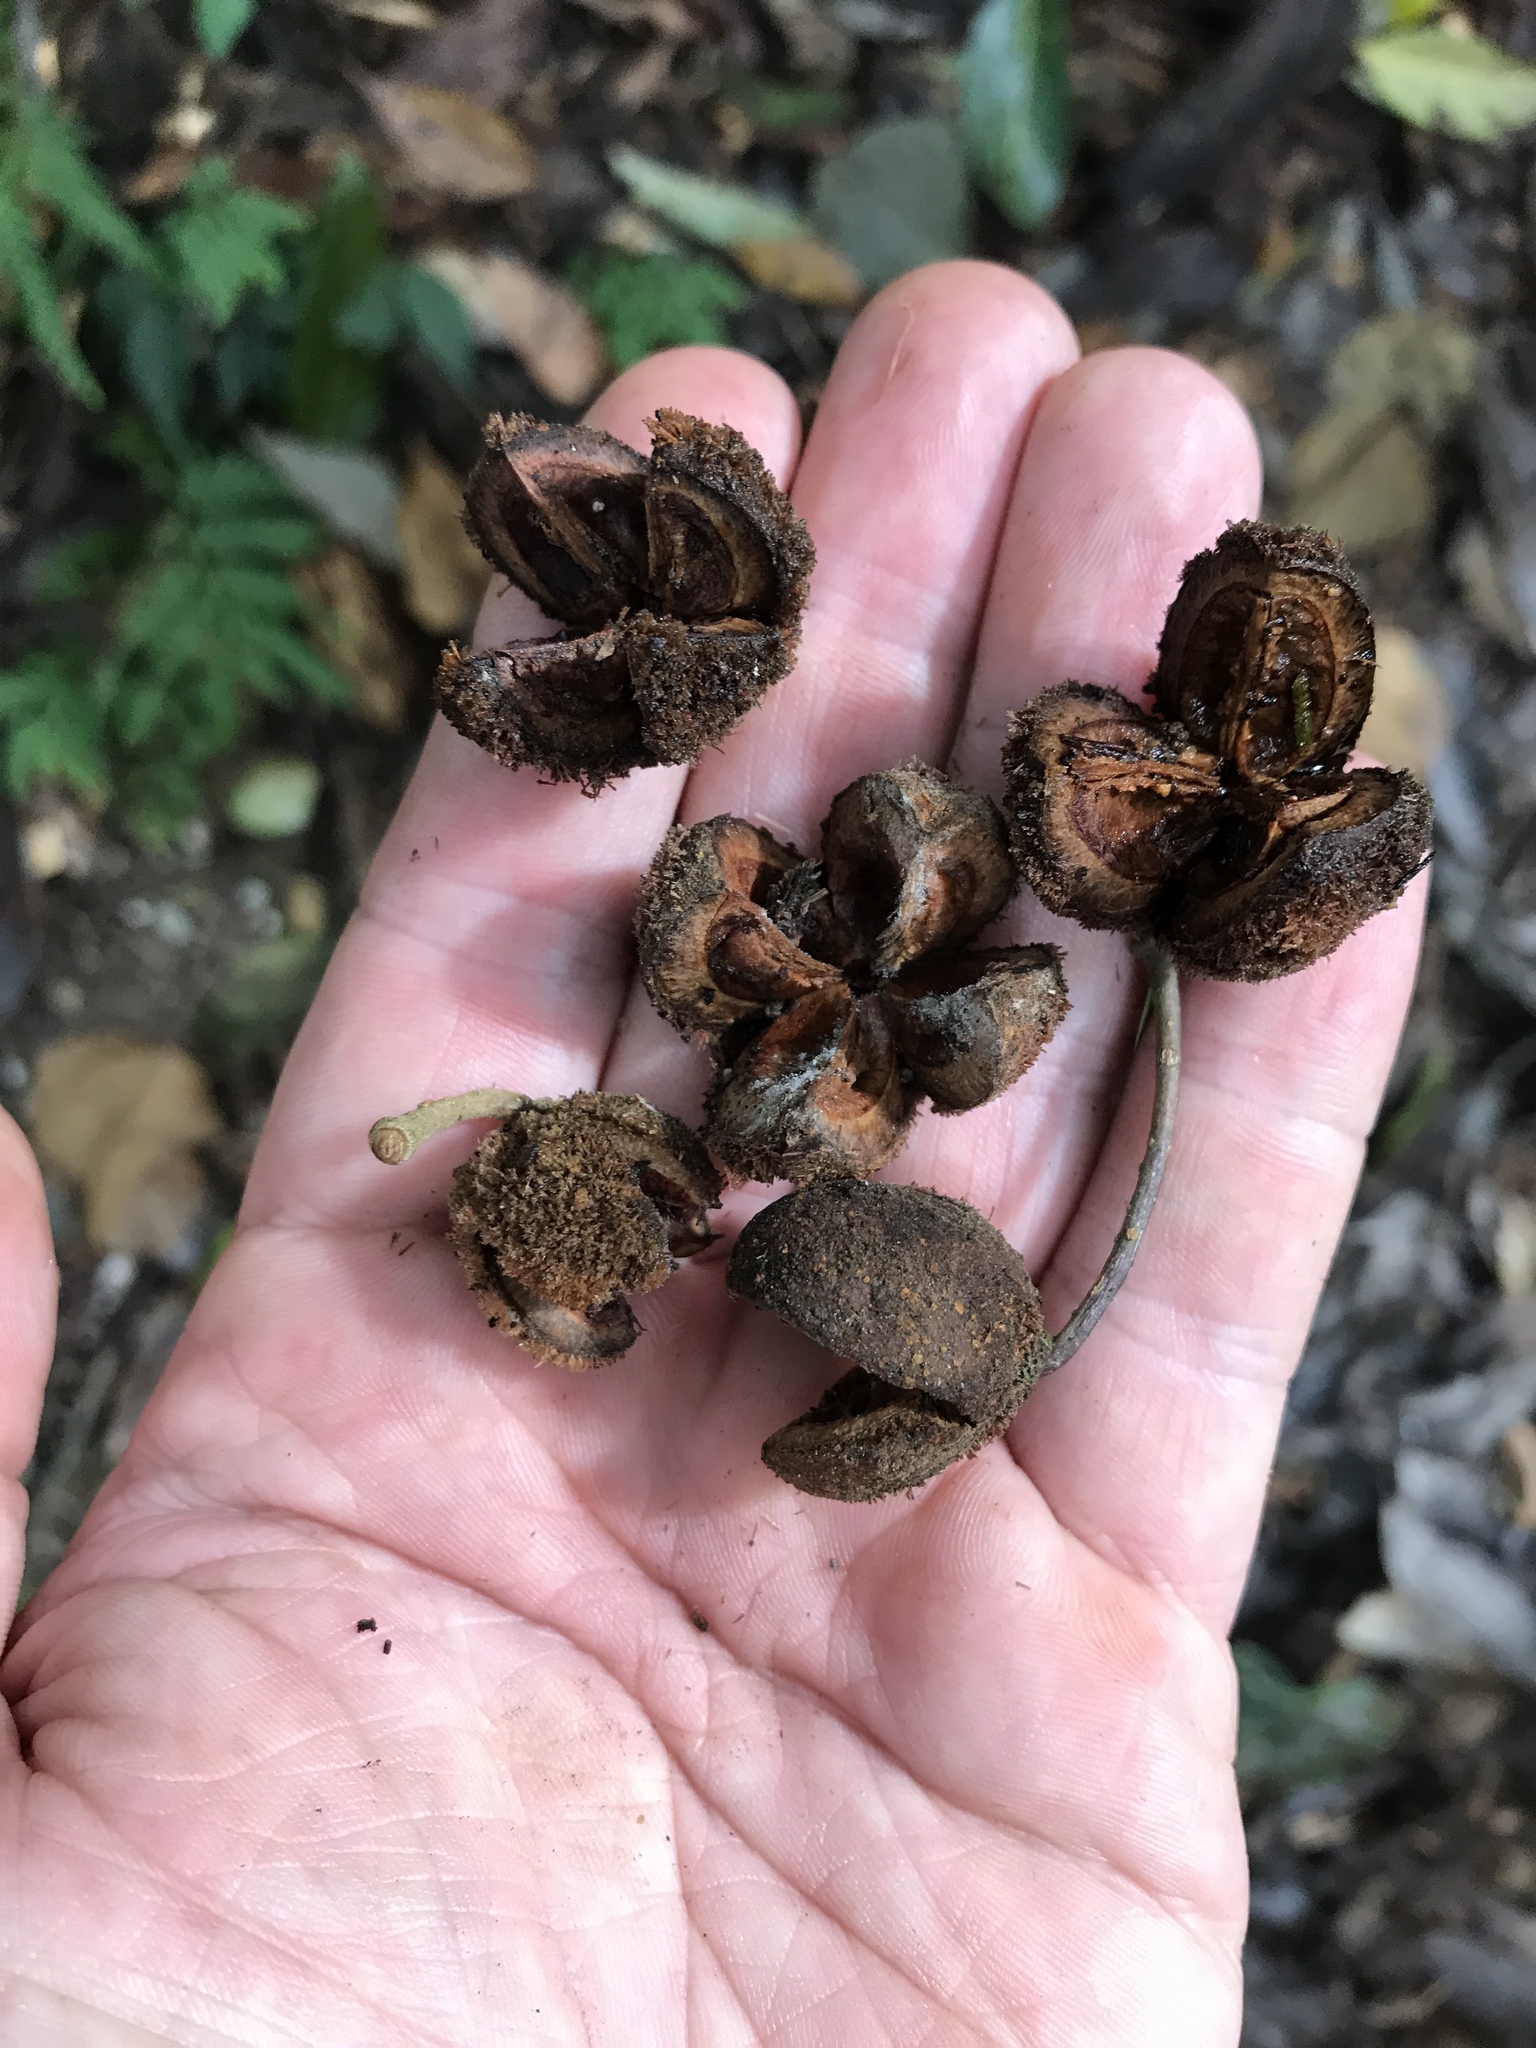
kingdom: Plantae
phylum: Tracheophyta
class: Magnoliopsida
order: Oxalidales
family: Elaeocarpaceae
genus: Sloanea
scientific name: Sloanea dasycarpa
